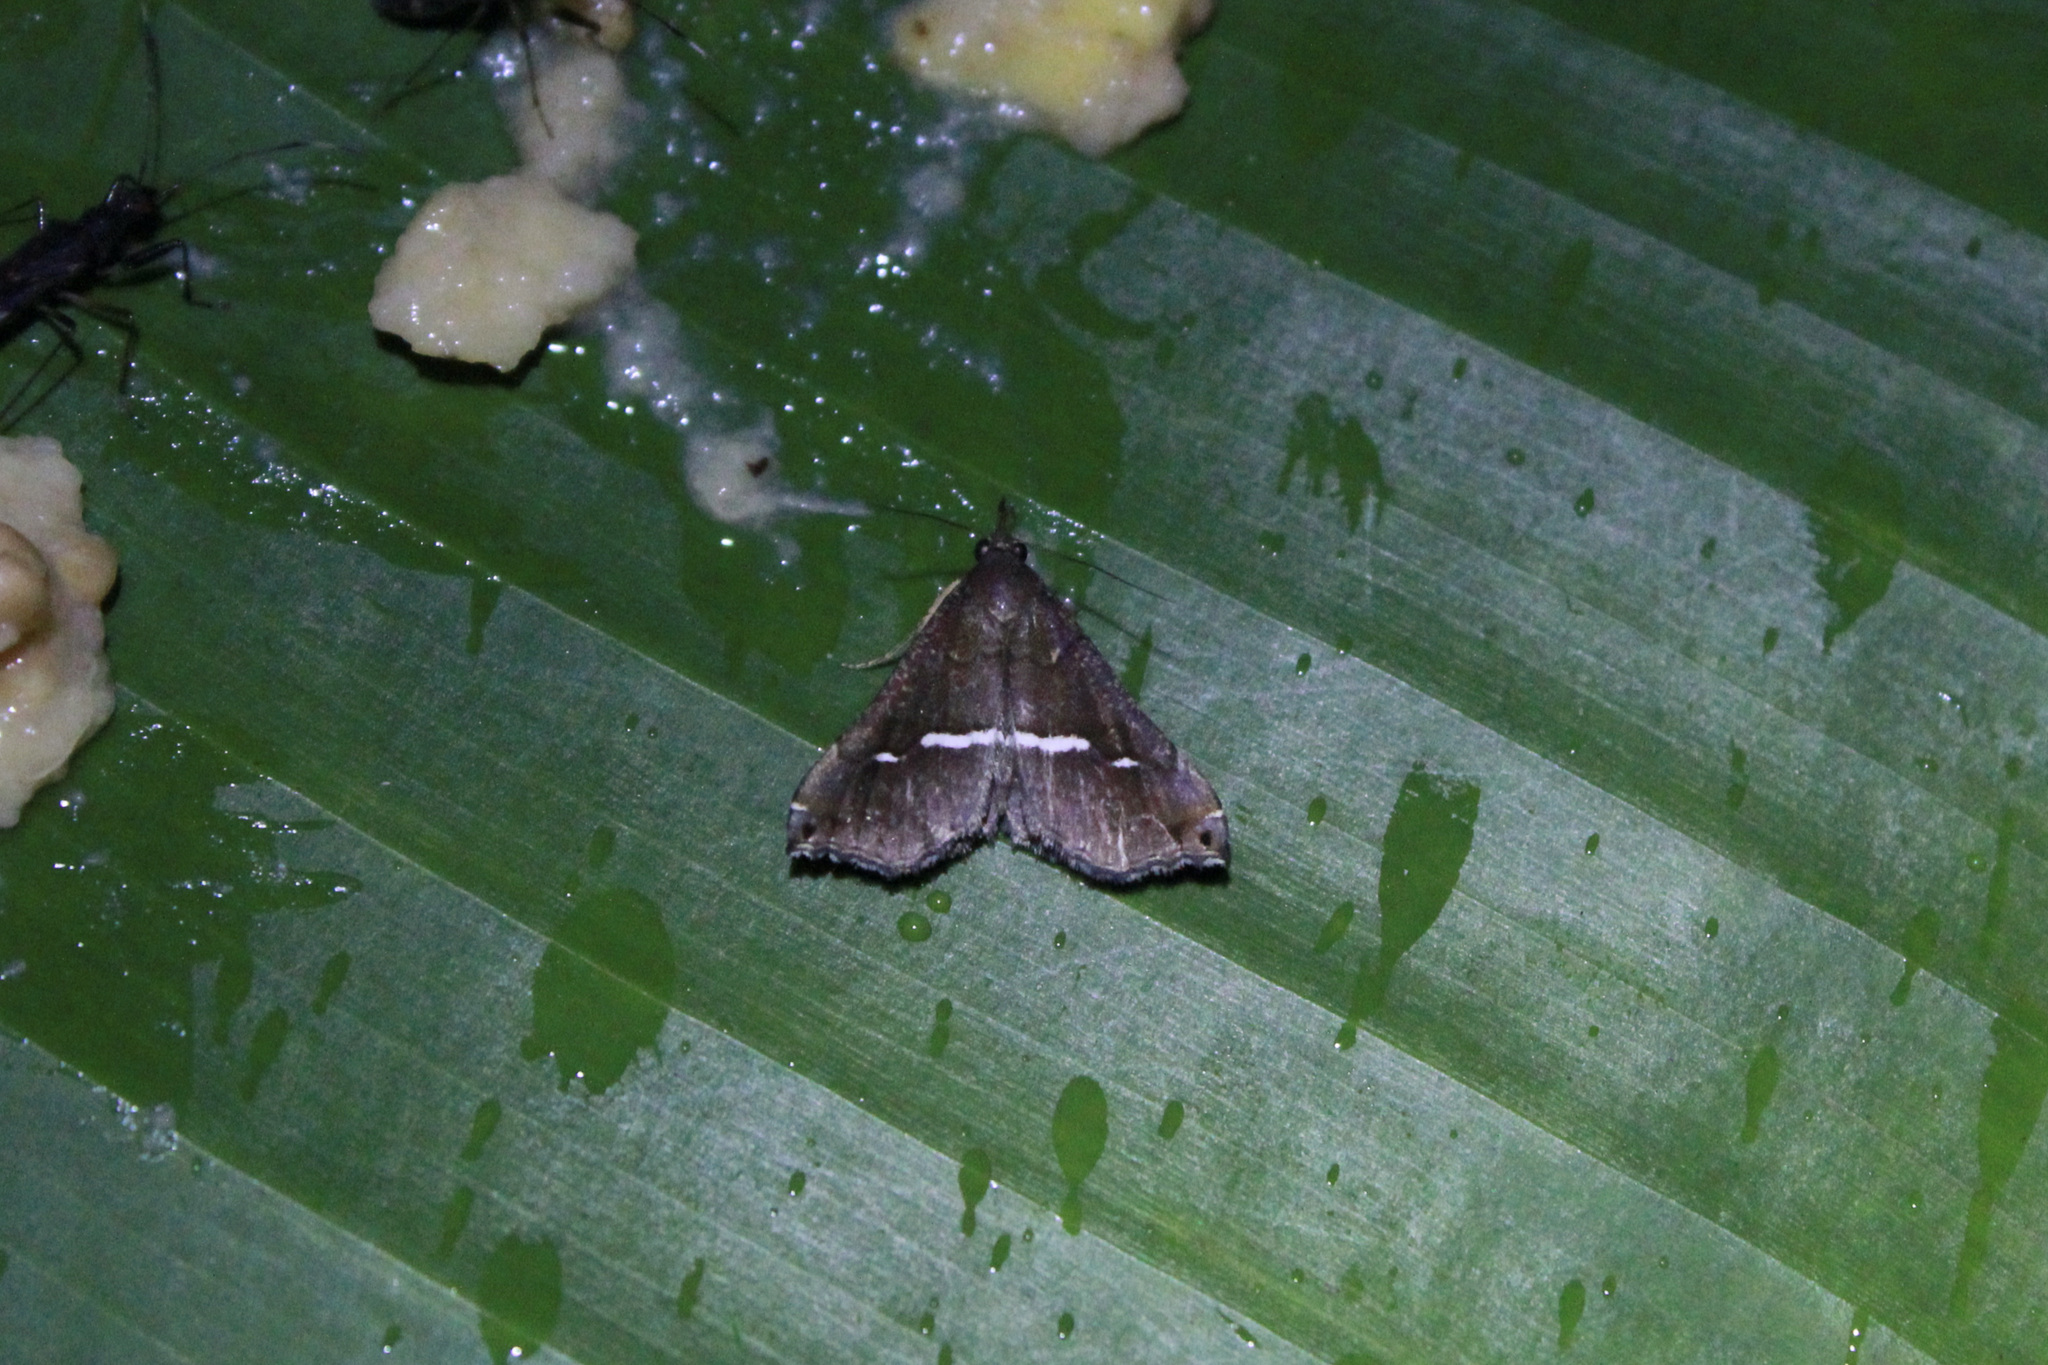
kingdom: Animalia
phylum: Arthropoda
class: Insecta
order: Lepidoptera
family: Erebidae
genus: Salia
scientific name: Salia albivia
